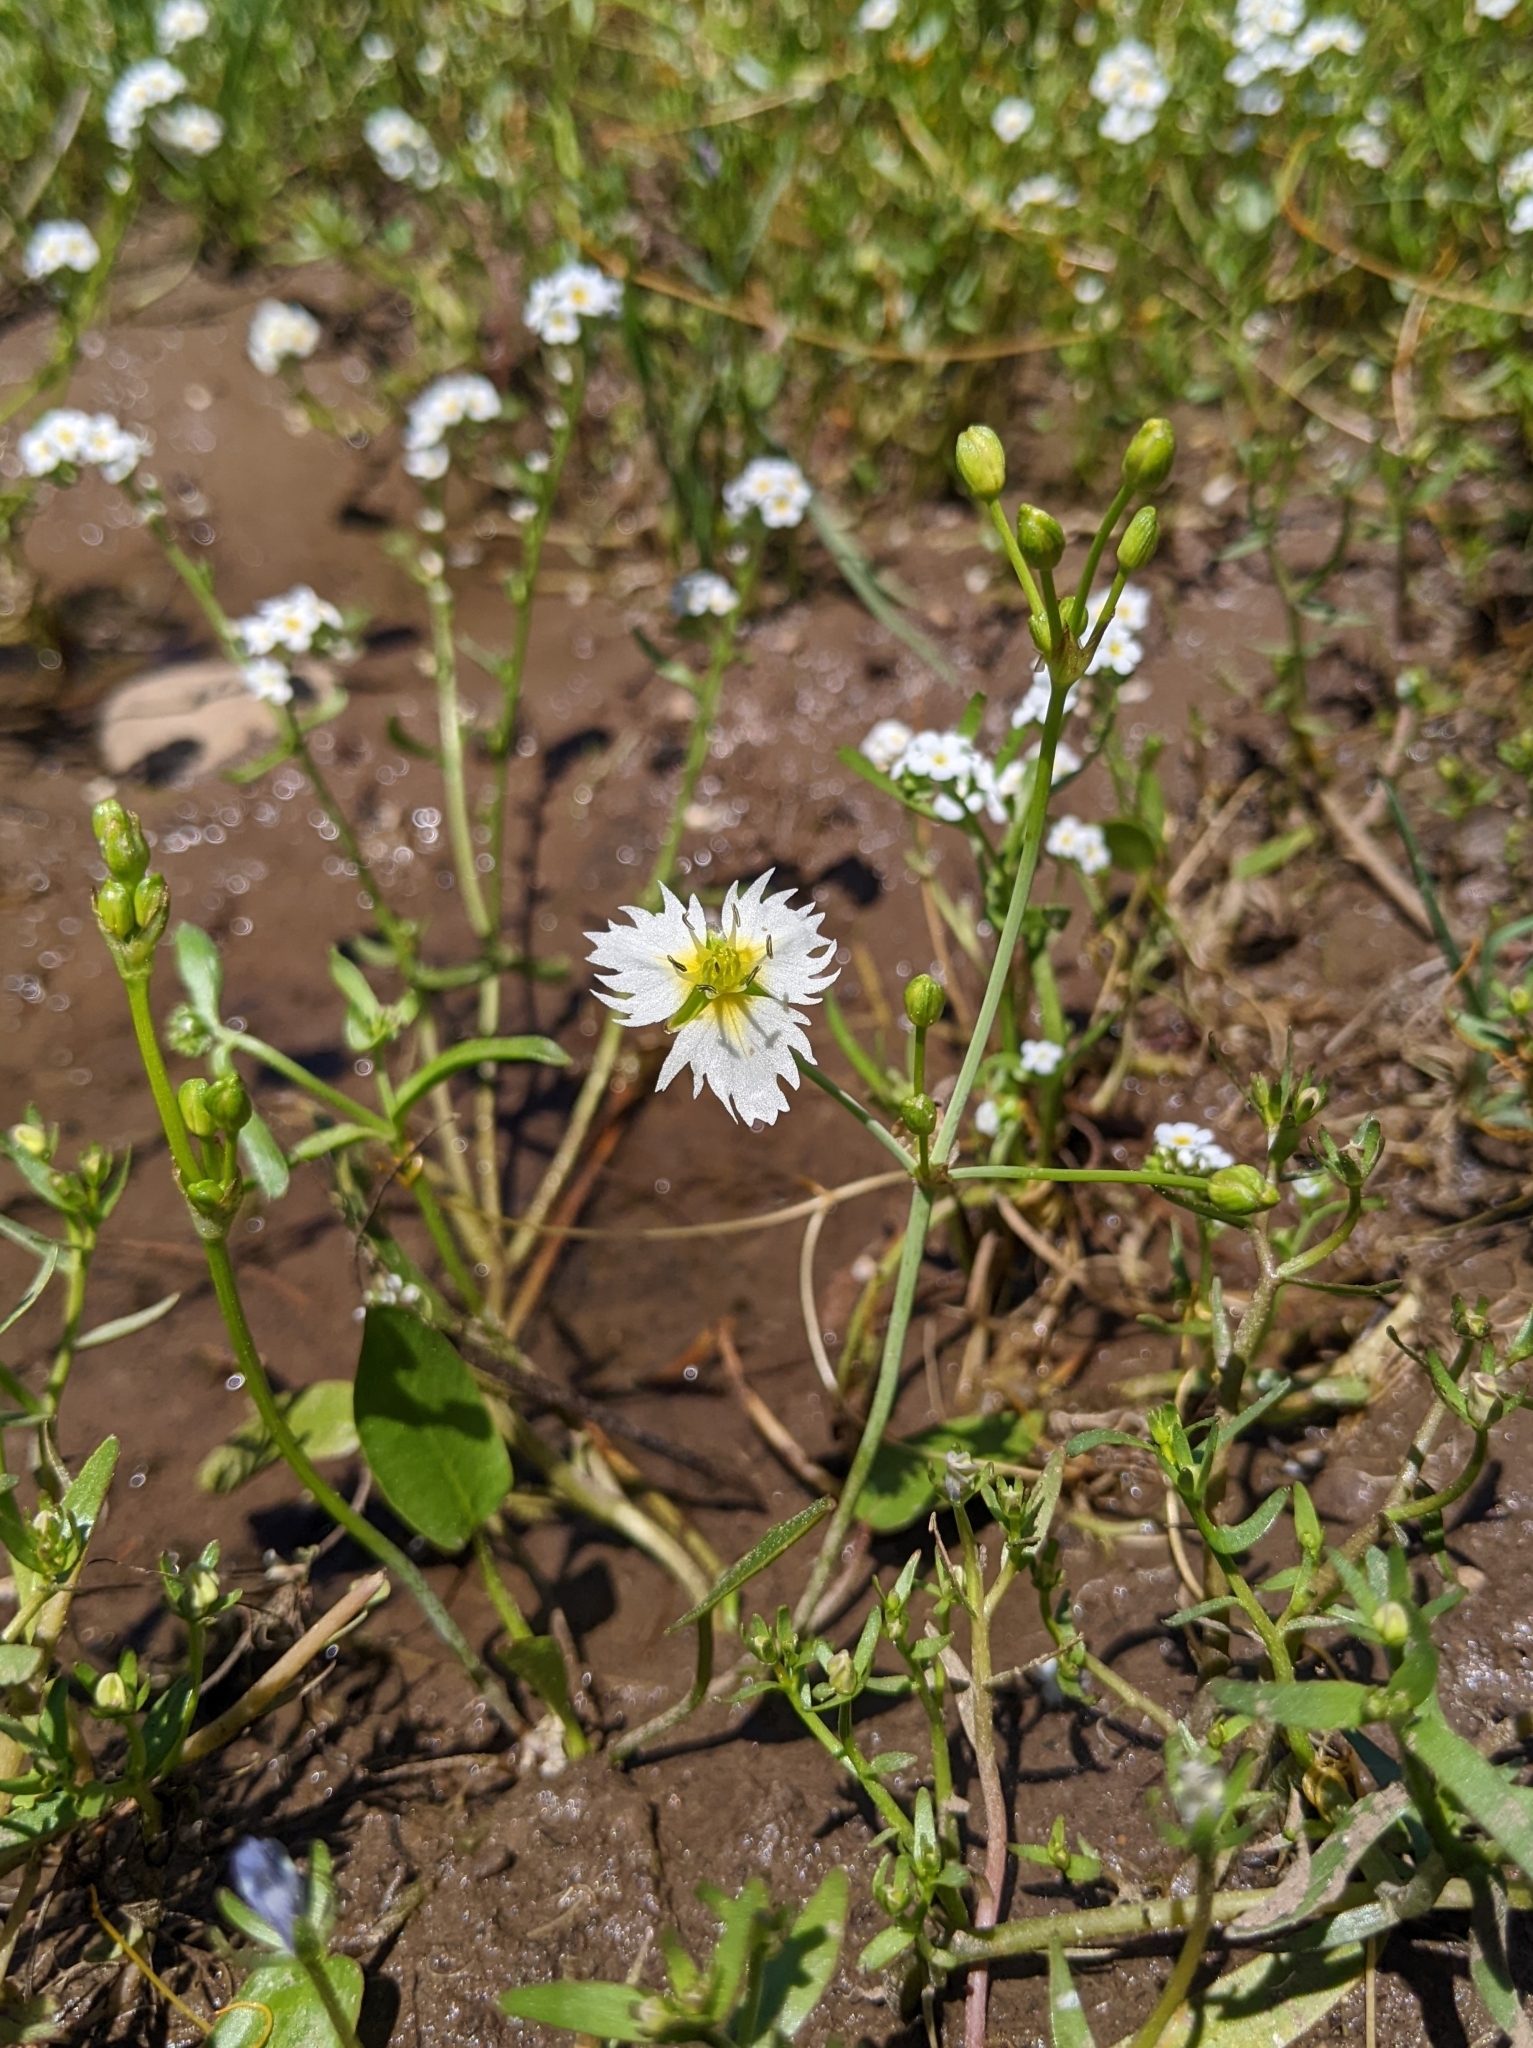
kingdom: Plantae
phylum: Tracheophyta
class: Liliopsida
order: Alismatales
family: Alismataceae
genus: Damasonium
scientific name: Damasonium californicum
